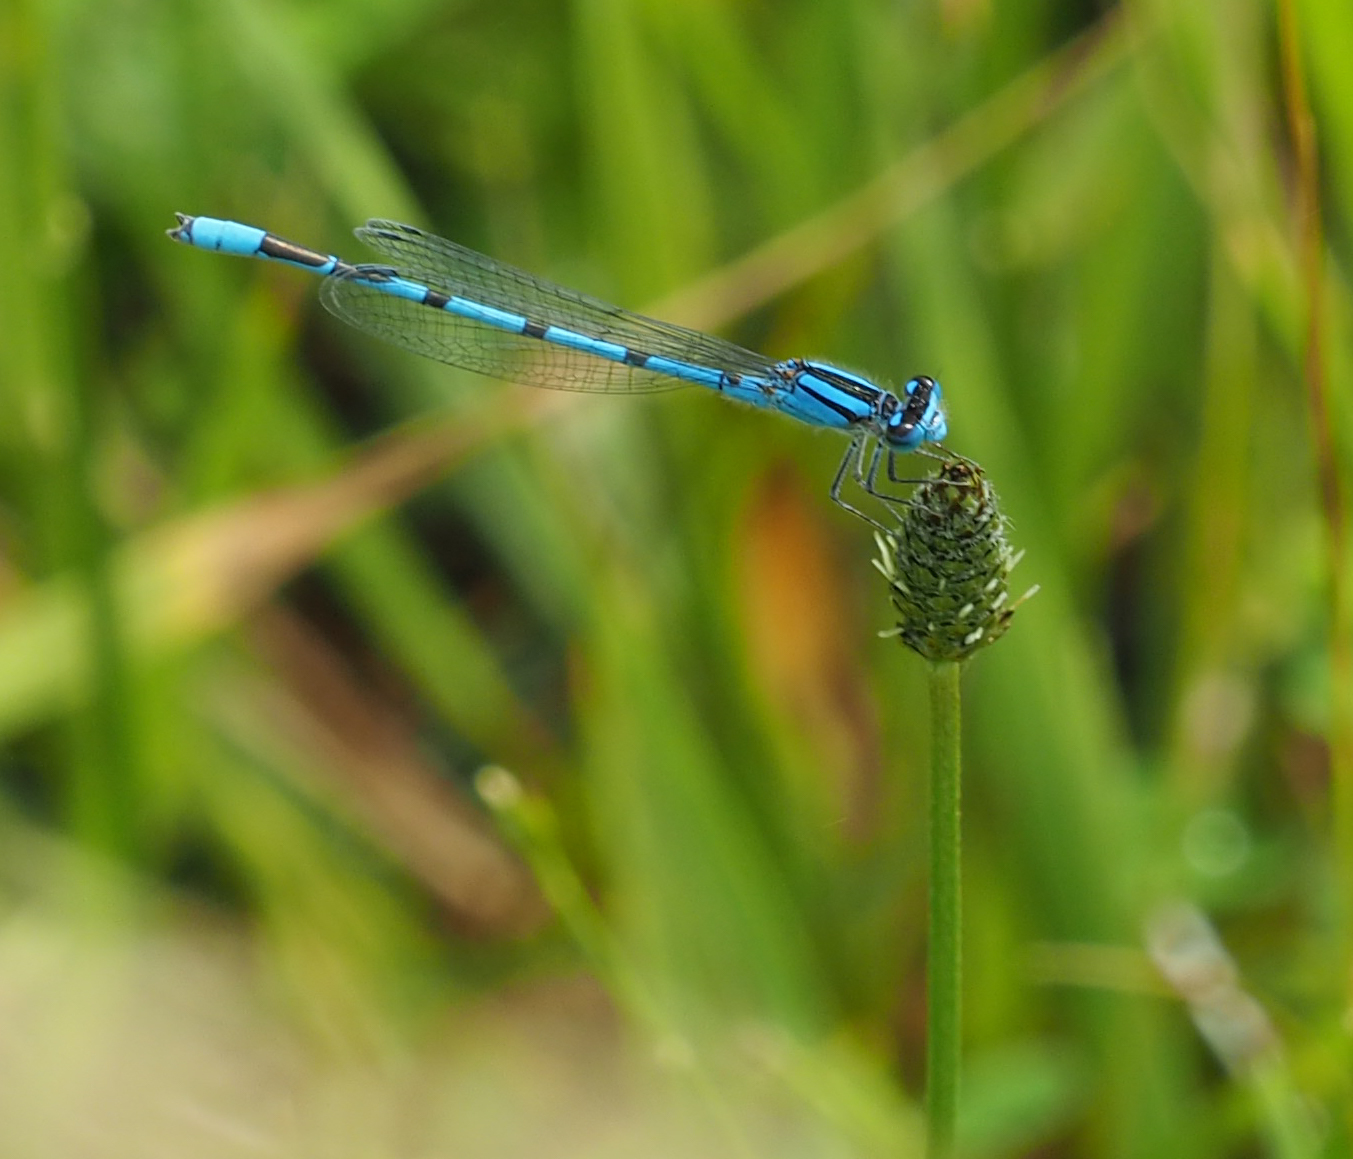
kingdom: Animalia
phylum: Arthropoda
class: Insecta
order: Odonata
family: Coenagrionidae
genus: Enallagma
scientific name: Enallagma civile
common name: Damselfly
